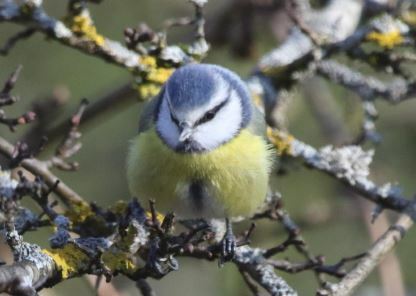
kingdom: Animalia
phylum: Chordata
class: Aves
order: Passeriformes
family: Paridae
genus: Cyanistes
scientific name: Cyanistes caeruleus
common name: Eurasian blue tit
